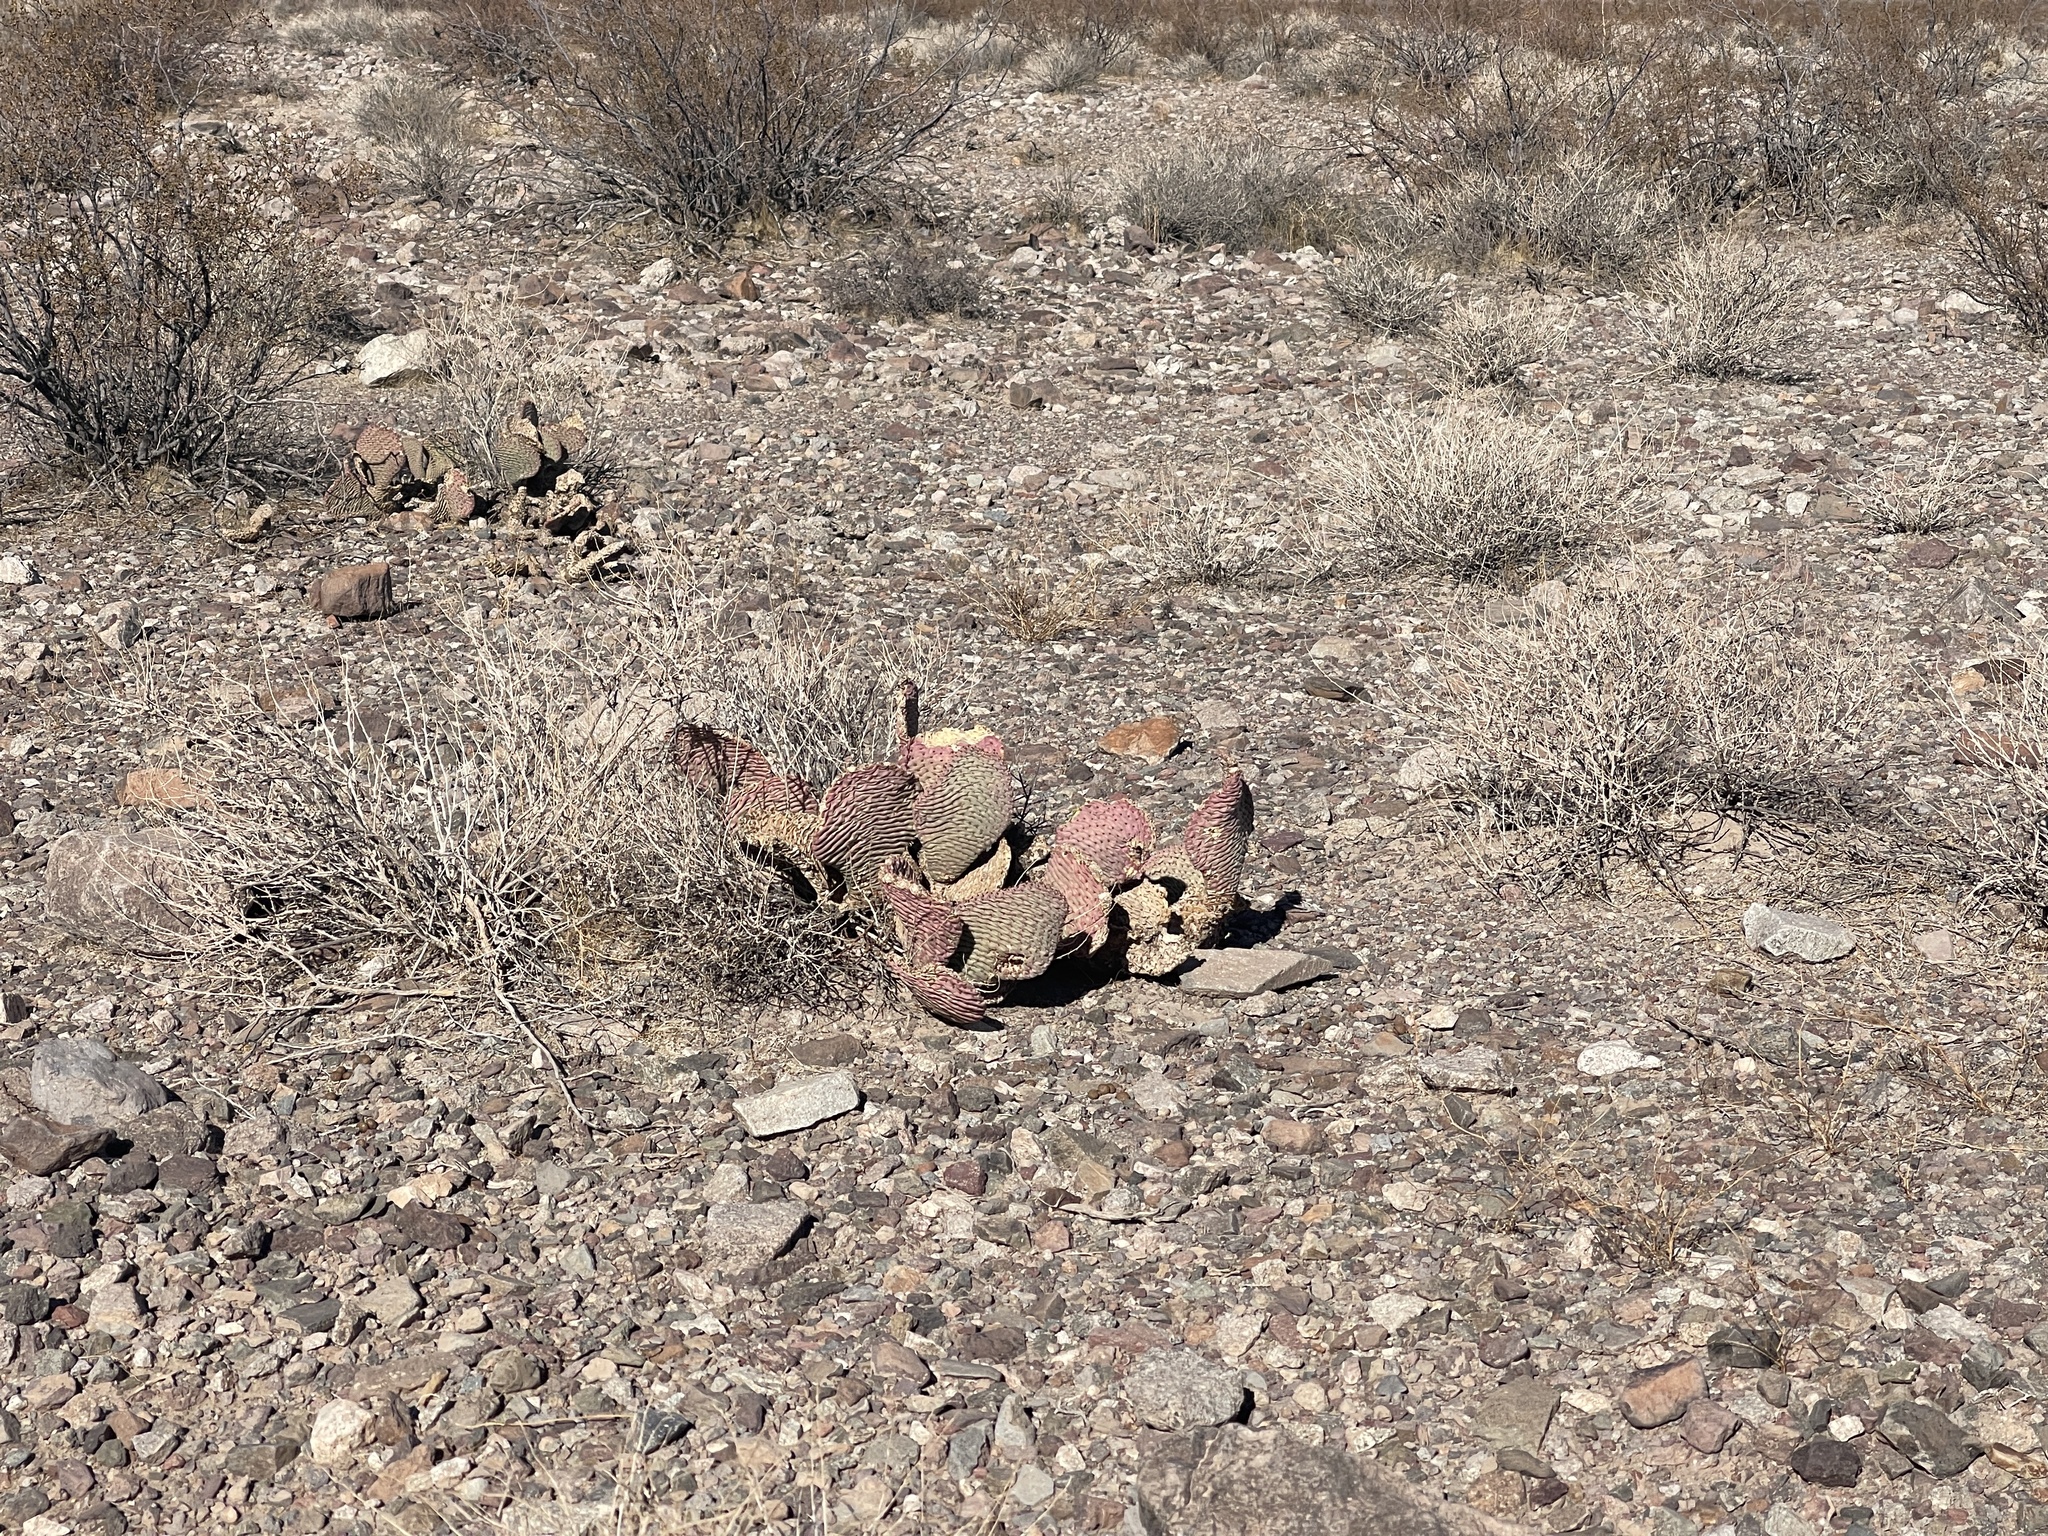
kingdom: Plantae
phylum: Tracheophyta
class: Magnoliopsida
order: Caryophyllales
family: Cactaceae
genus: Opuntia
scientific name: Opuntia basilaris
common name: Beavertail prickly-pear
